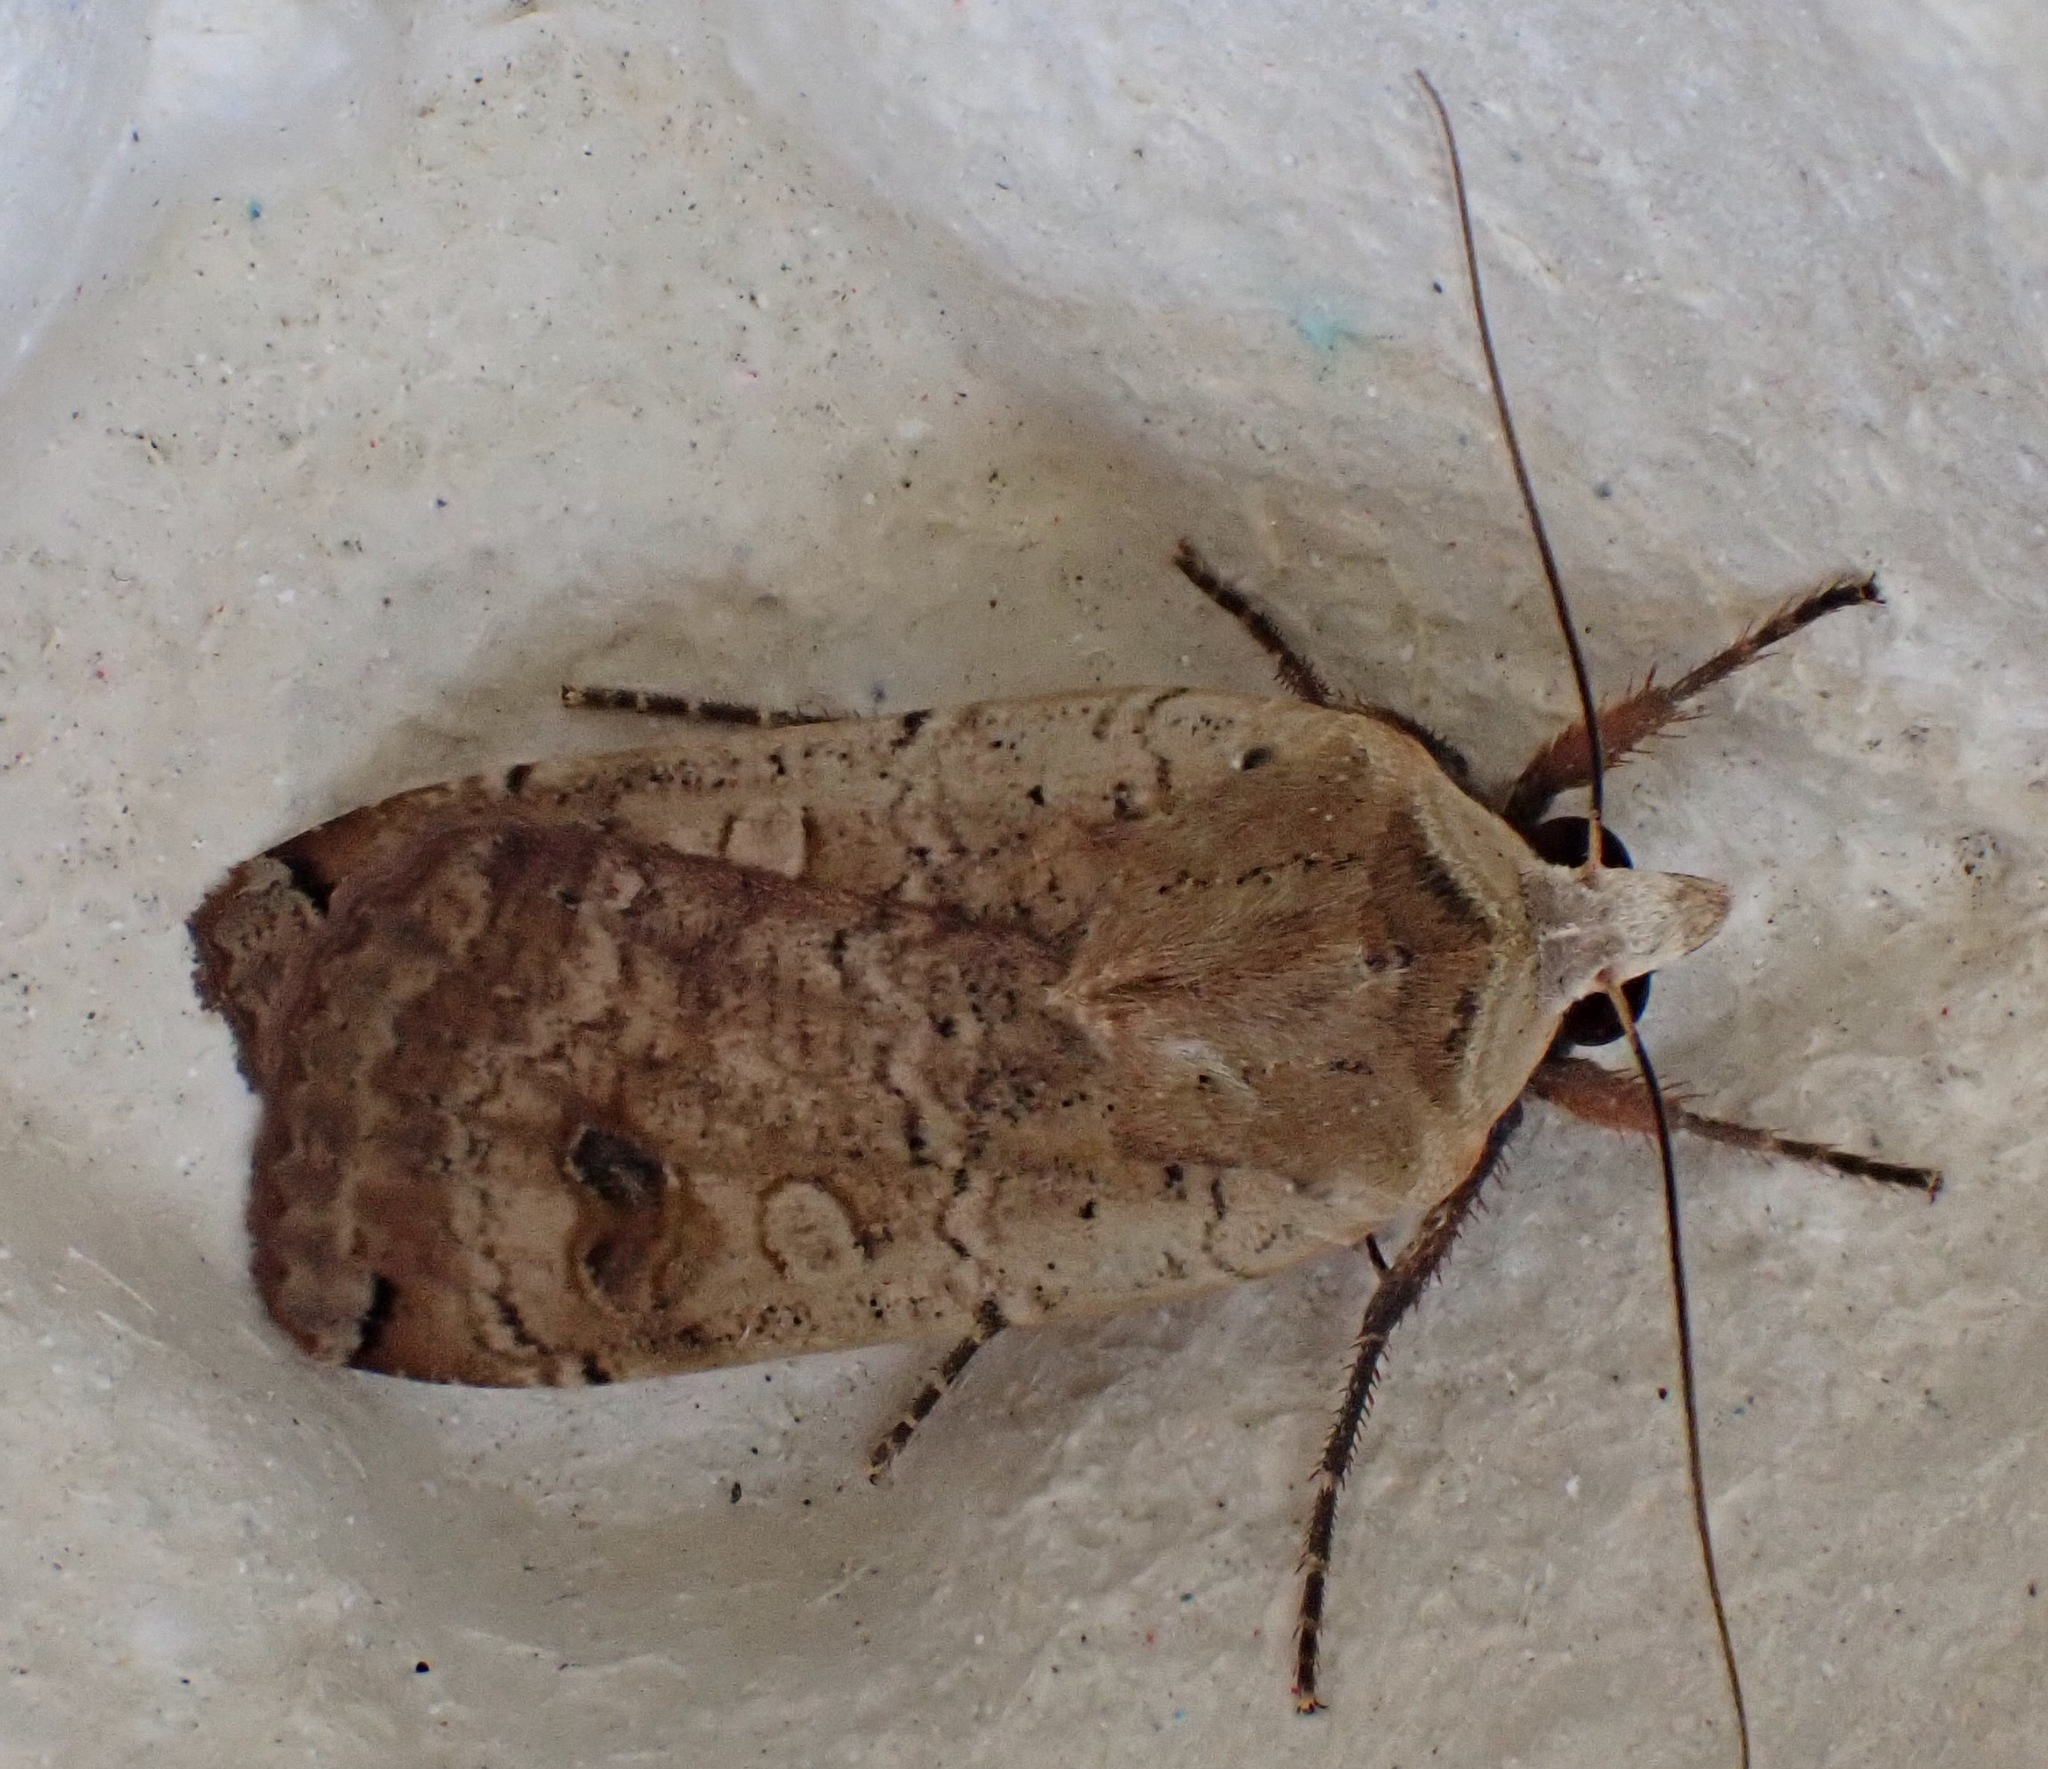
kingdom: Animalia
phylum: Arthropoda
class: Insecta
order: Lepidoptera
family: Noctuidae
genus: Noctua
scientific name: Noctua pronuba
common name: Large yellow underwing
